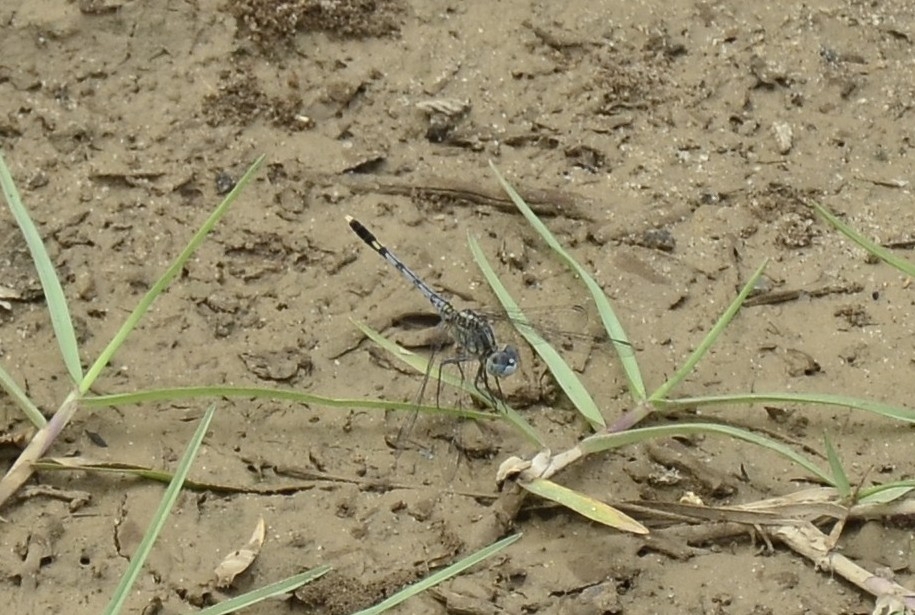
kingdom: Animalia
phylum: Arthropoda
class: Insecta
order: Odonata
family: Libellulidae
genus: Diplacodes
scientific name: Diplacodes trivialis
